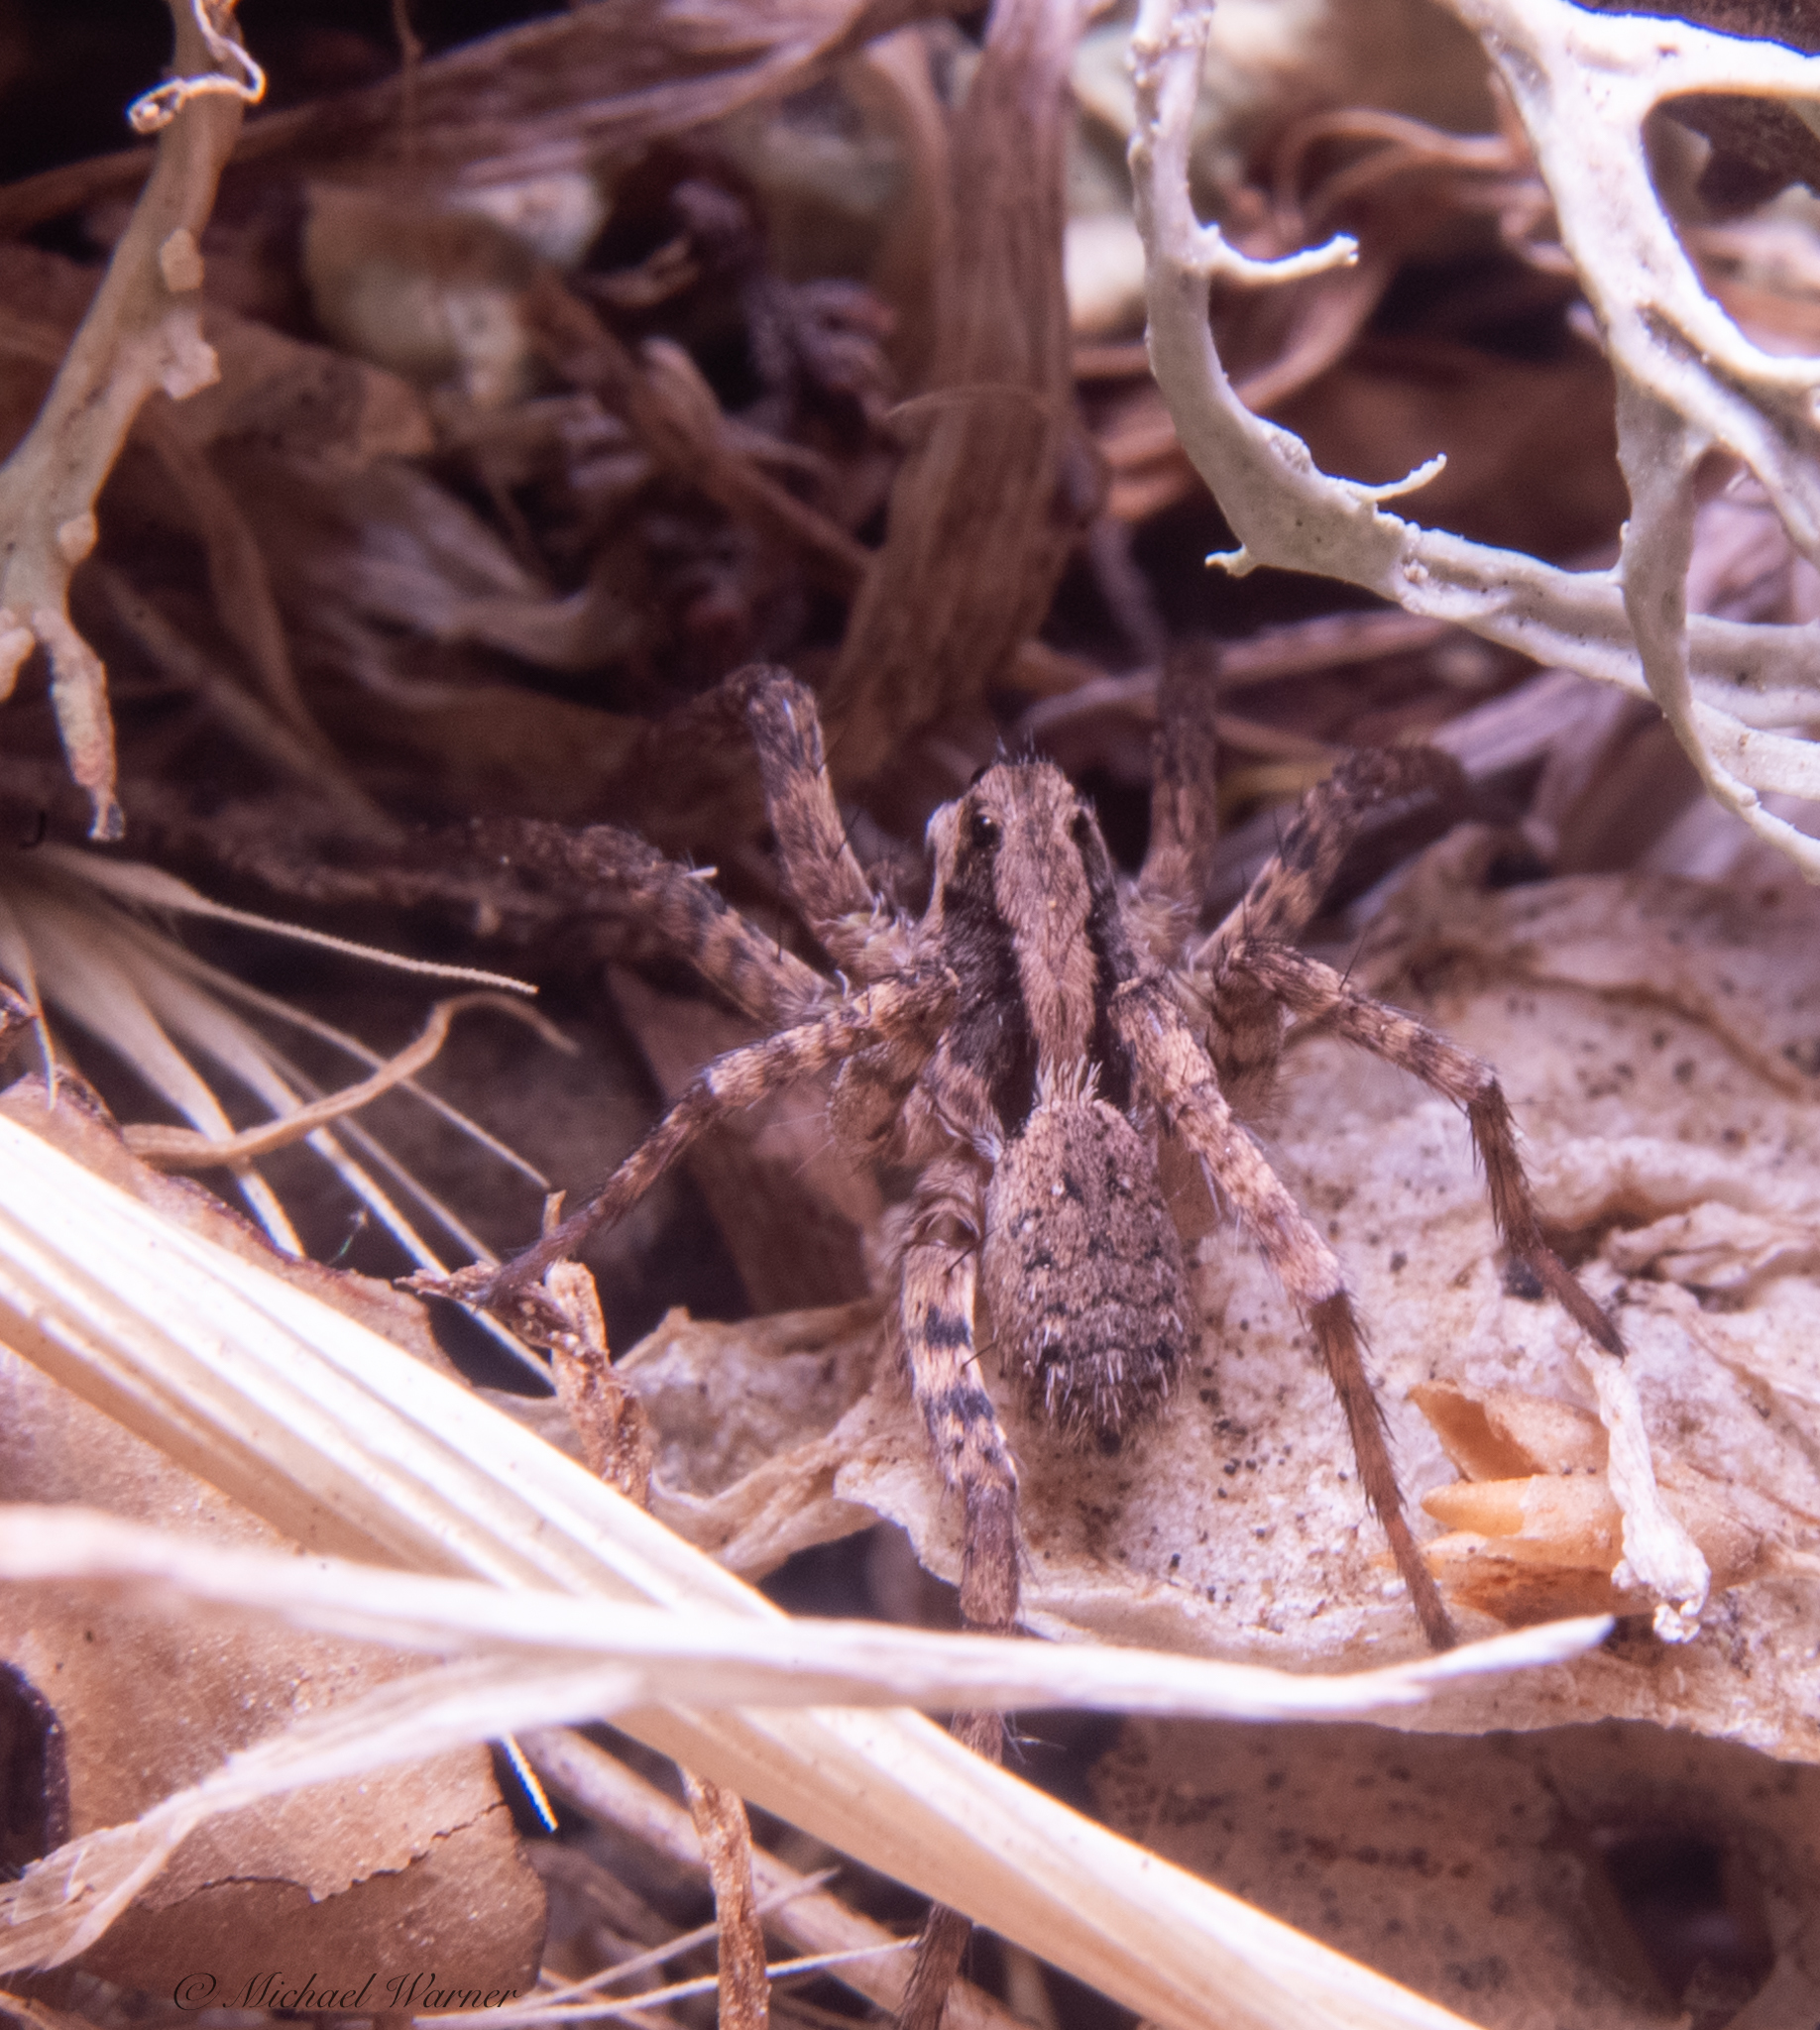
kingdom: Animalia
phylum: Arthropoda
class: Arachnida
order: Araneae
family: Lycosidae
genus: Alopecosa
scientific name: Alopecosa kochi
